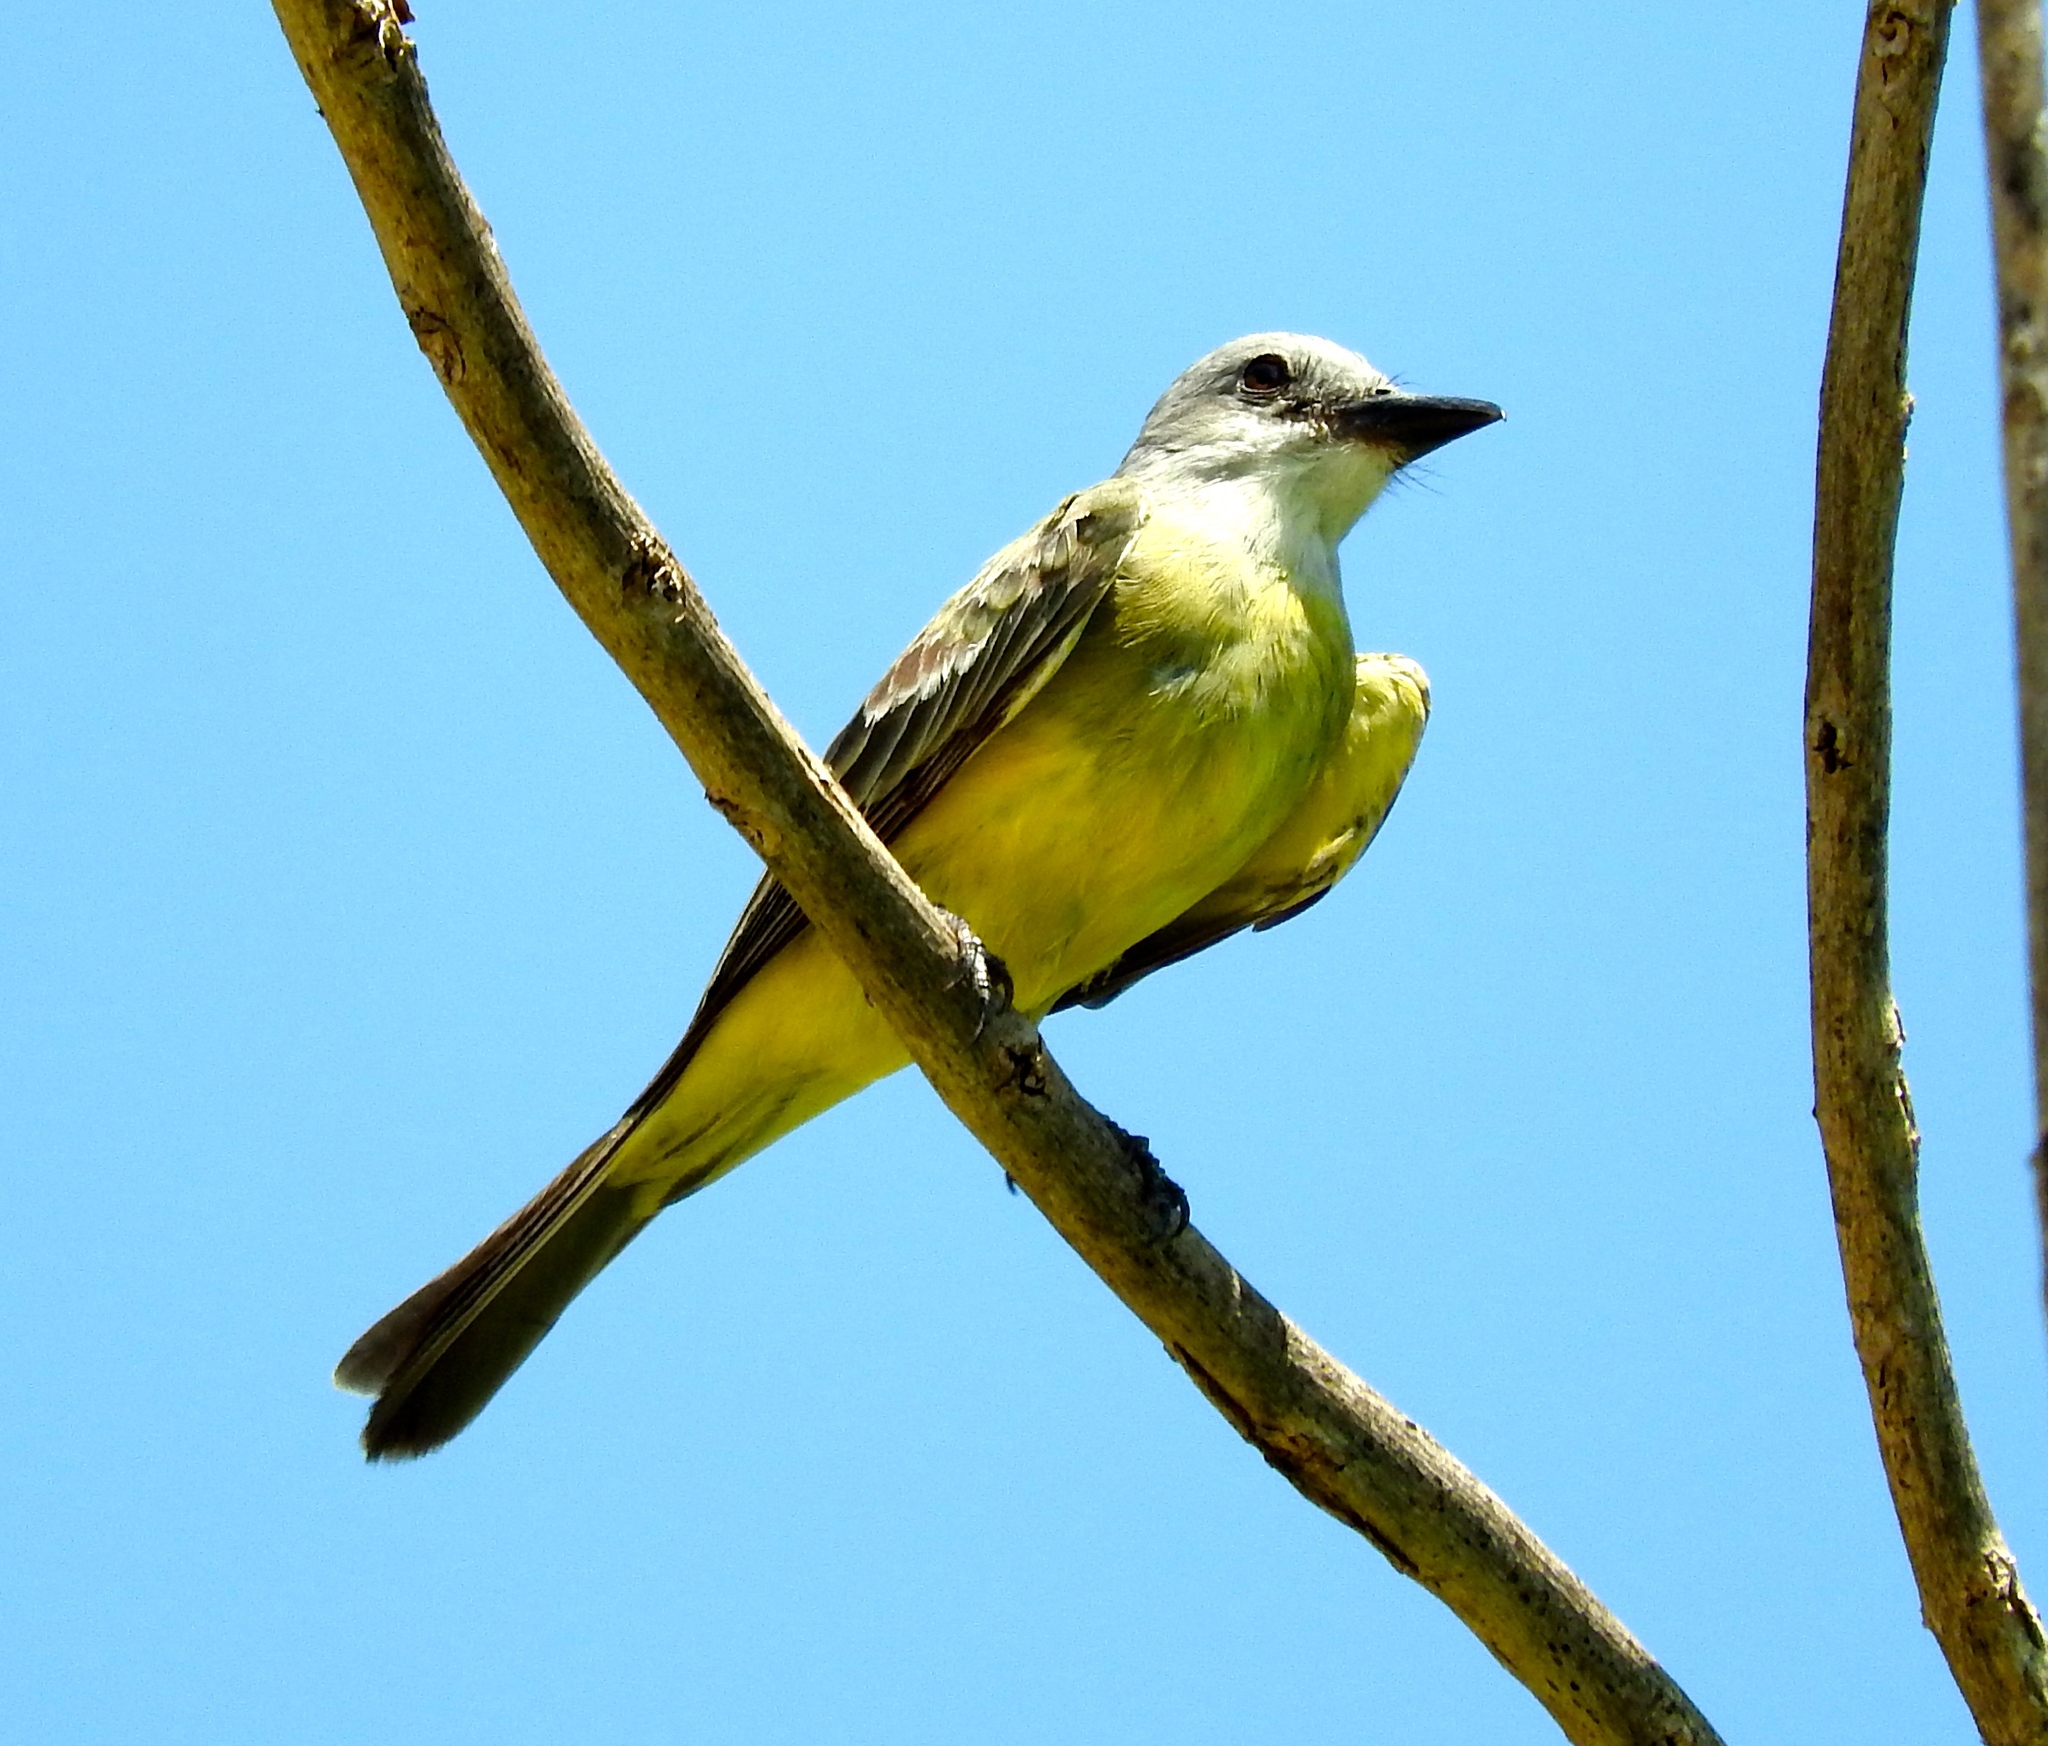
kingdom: Animalia
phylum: Chordata
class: Aves
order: Passeriformes
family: Tyrannidae
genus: Tyrannus
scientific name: Tyrannus melancholicus
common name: Tropical kingbird
